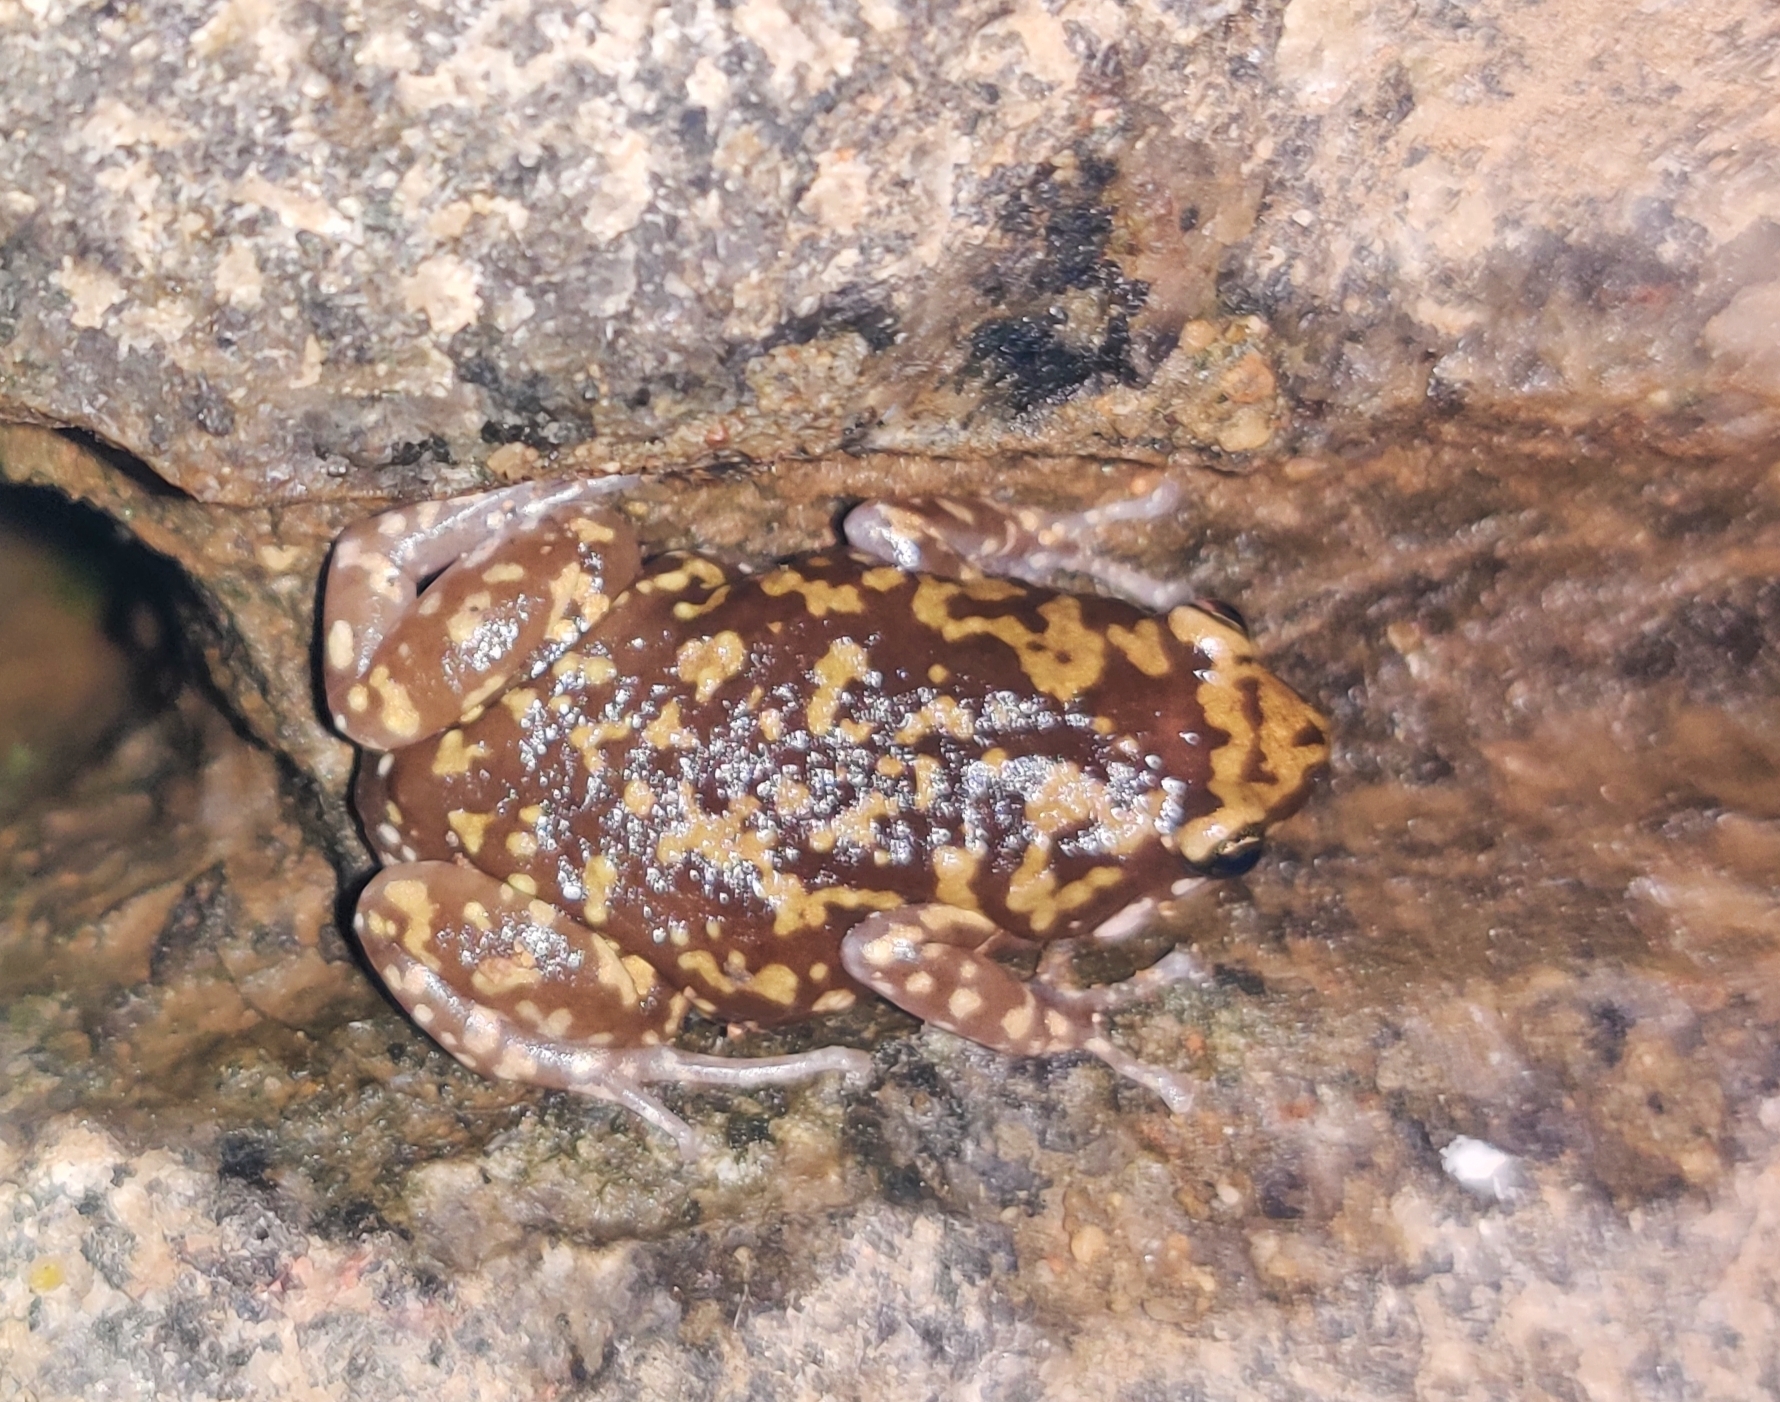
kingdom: Animalia
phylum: Chordata
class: Amphibia
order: Anura
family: Microhylidae
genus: Uperodon
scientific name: Uperodon variegatus
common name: Eluru dot frog
